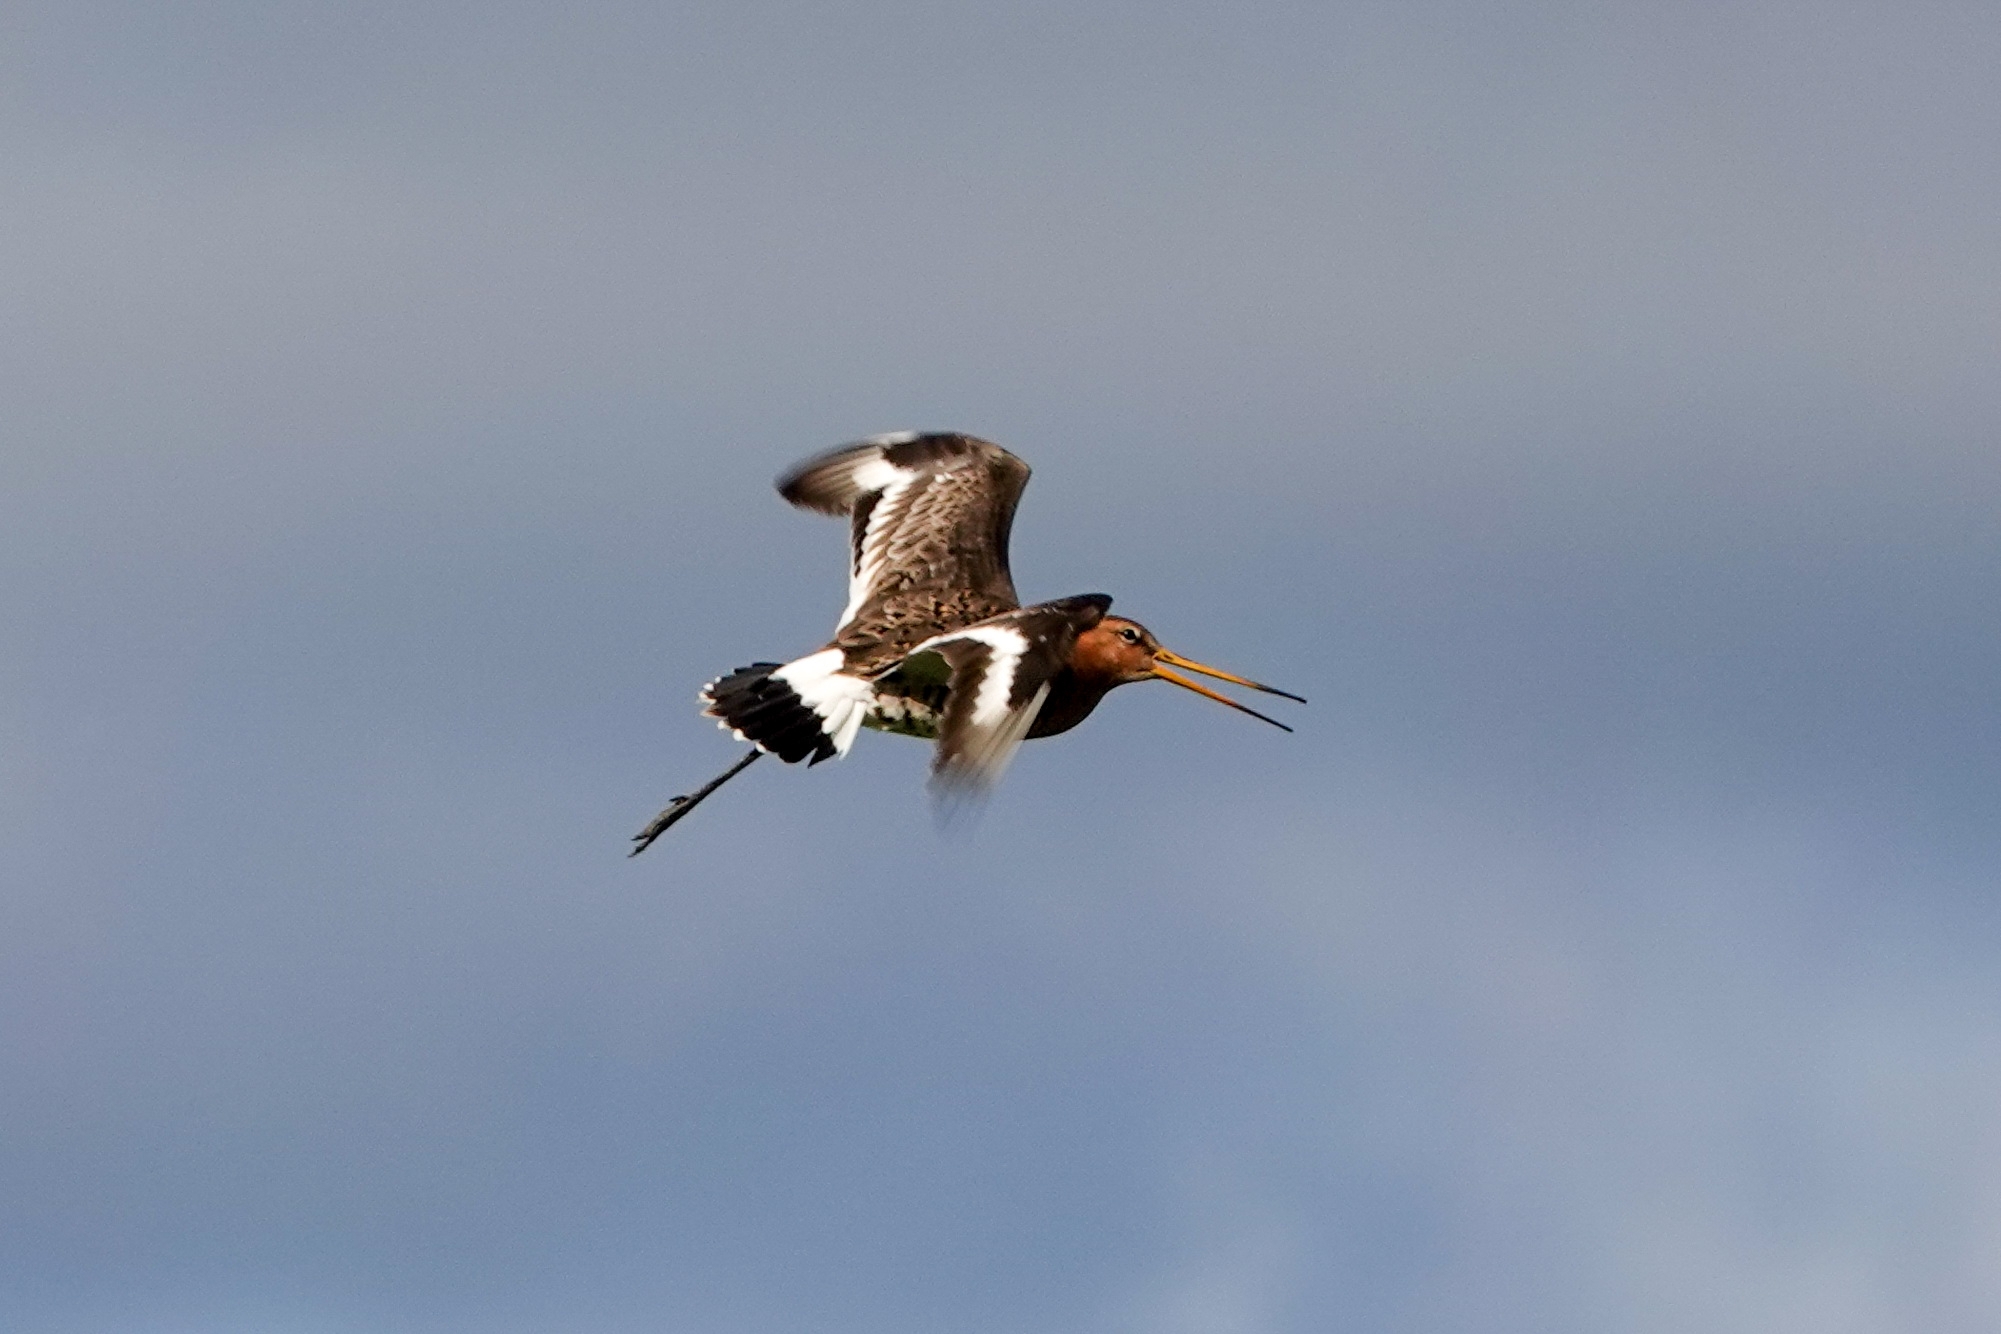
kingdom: Animalia
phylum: Chordata
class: Aves
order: Charadriiformes
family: Scolopacidae
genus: Limosa
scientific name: Limosa limosa
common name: Black-tailed godwit
